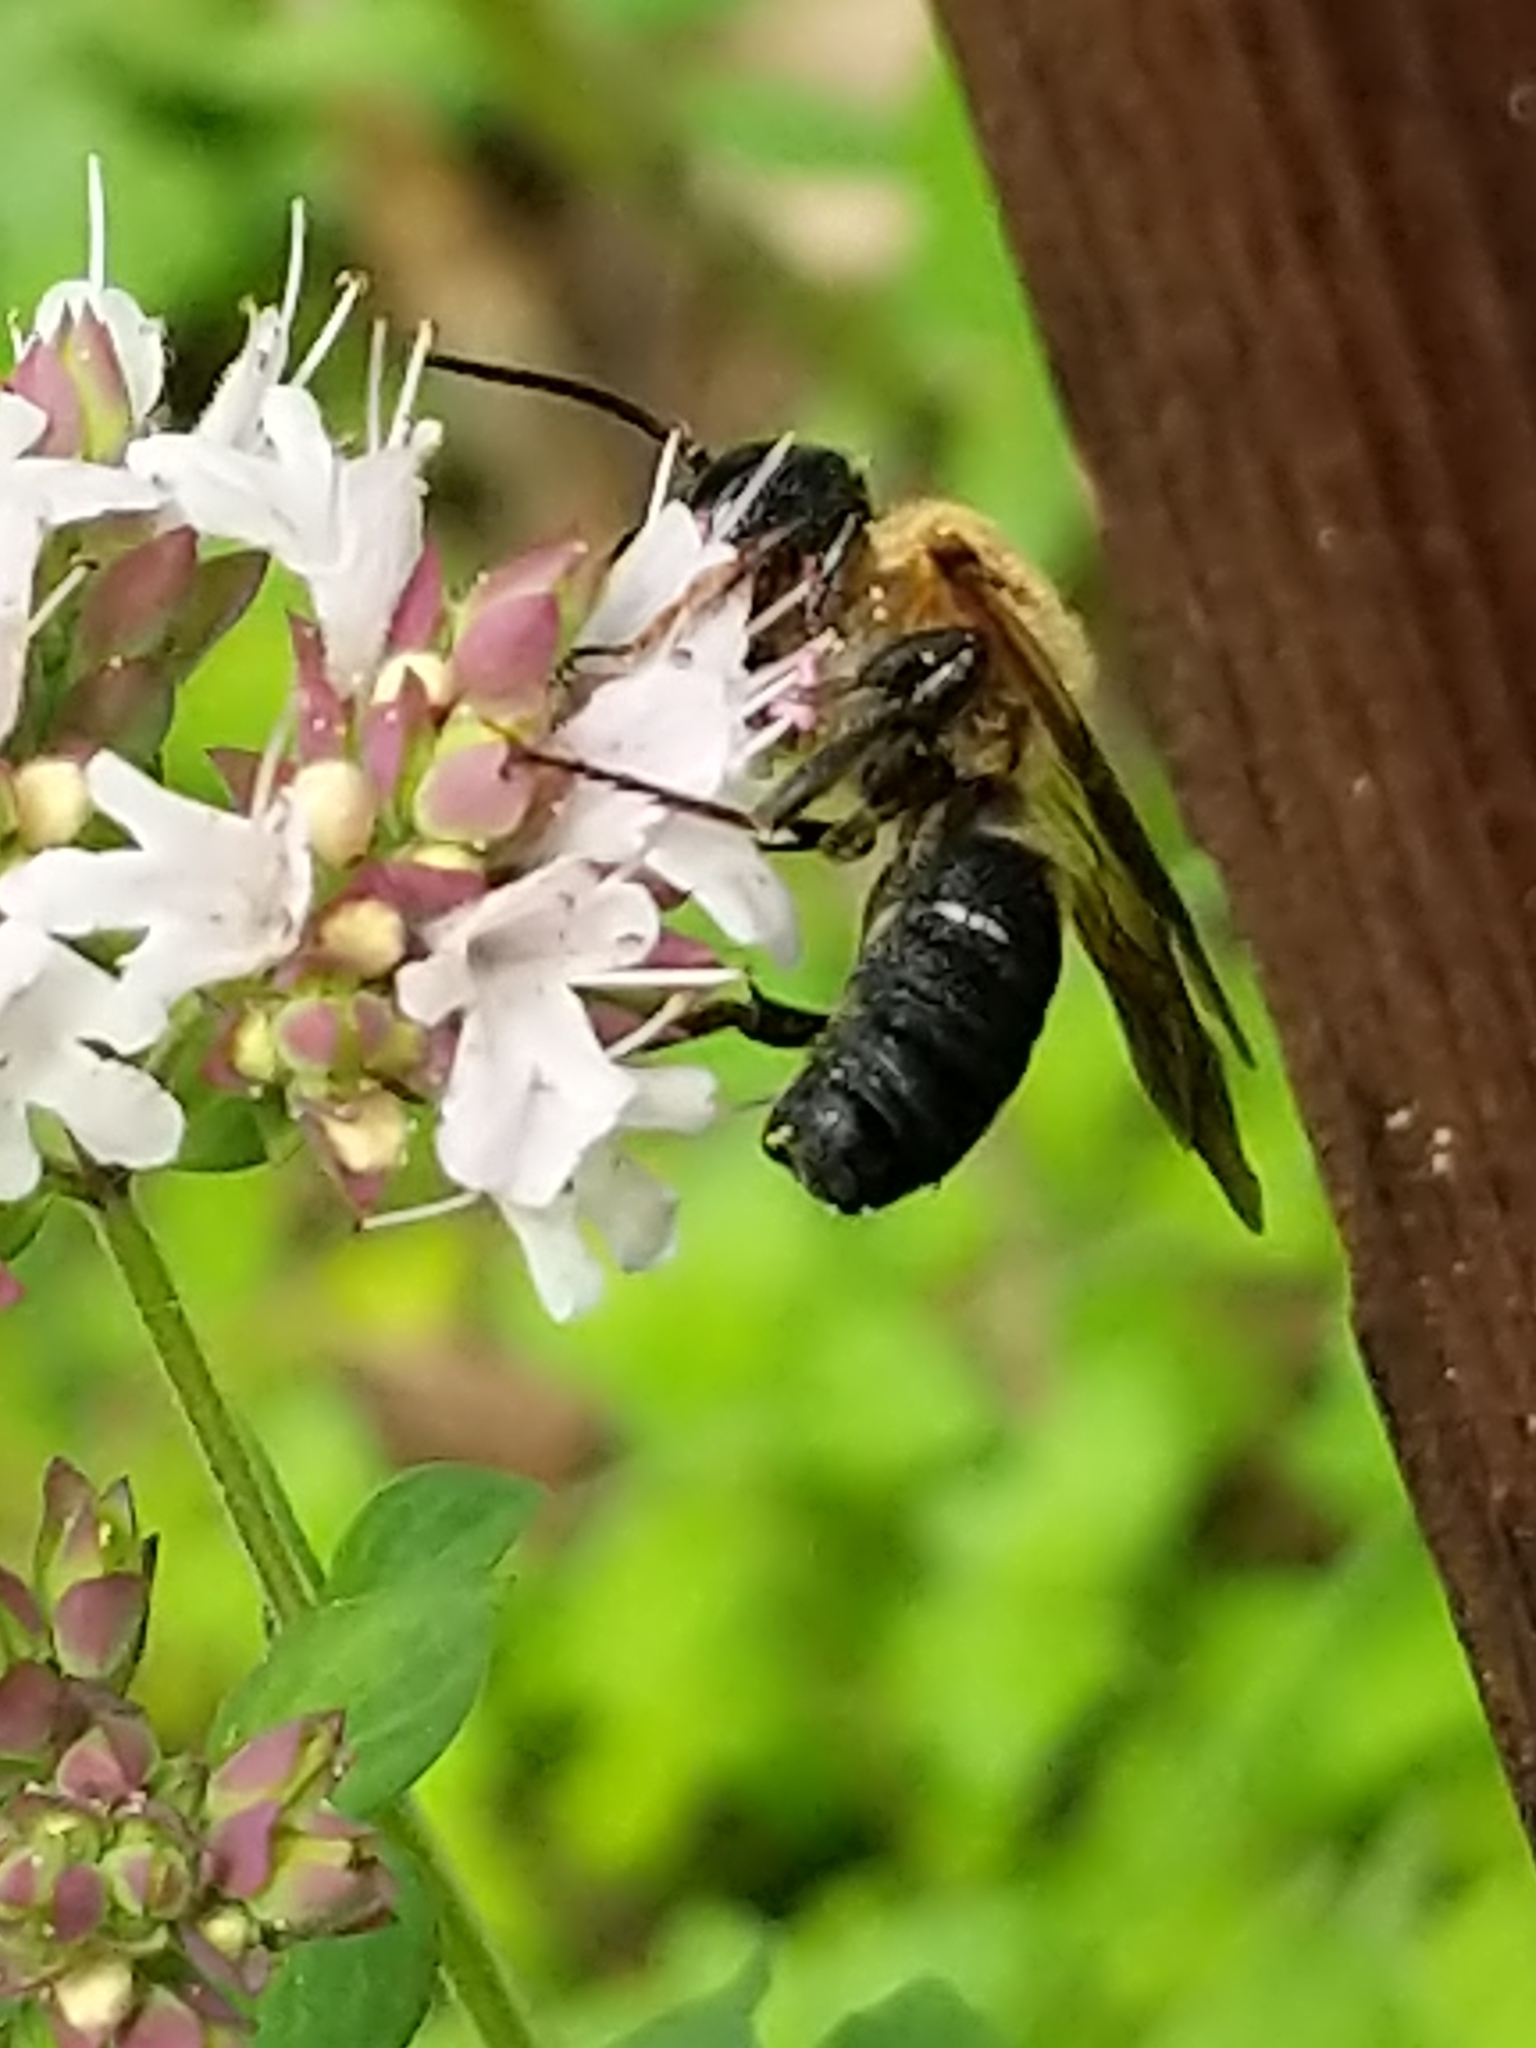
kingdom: Animalia
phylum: Arthropoda
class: Insecta
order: Hymenoptera
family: Megachilidae
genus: Megachile
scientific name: Megachile sculpturalis
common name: Sculptured resin bee
